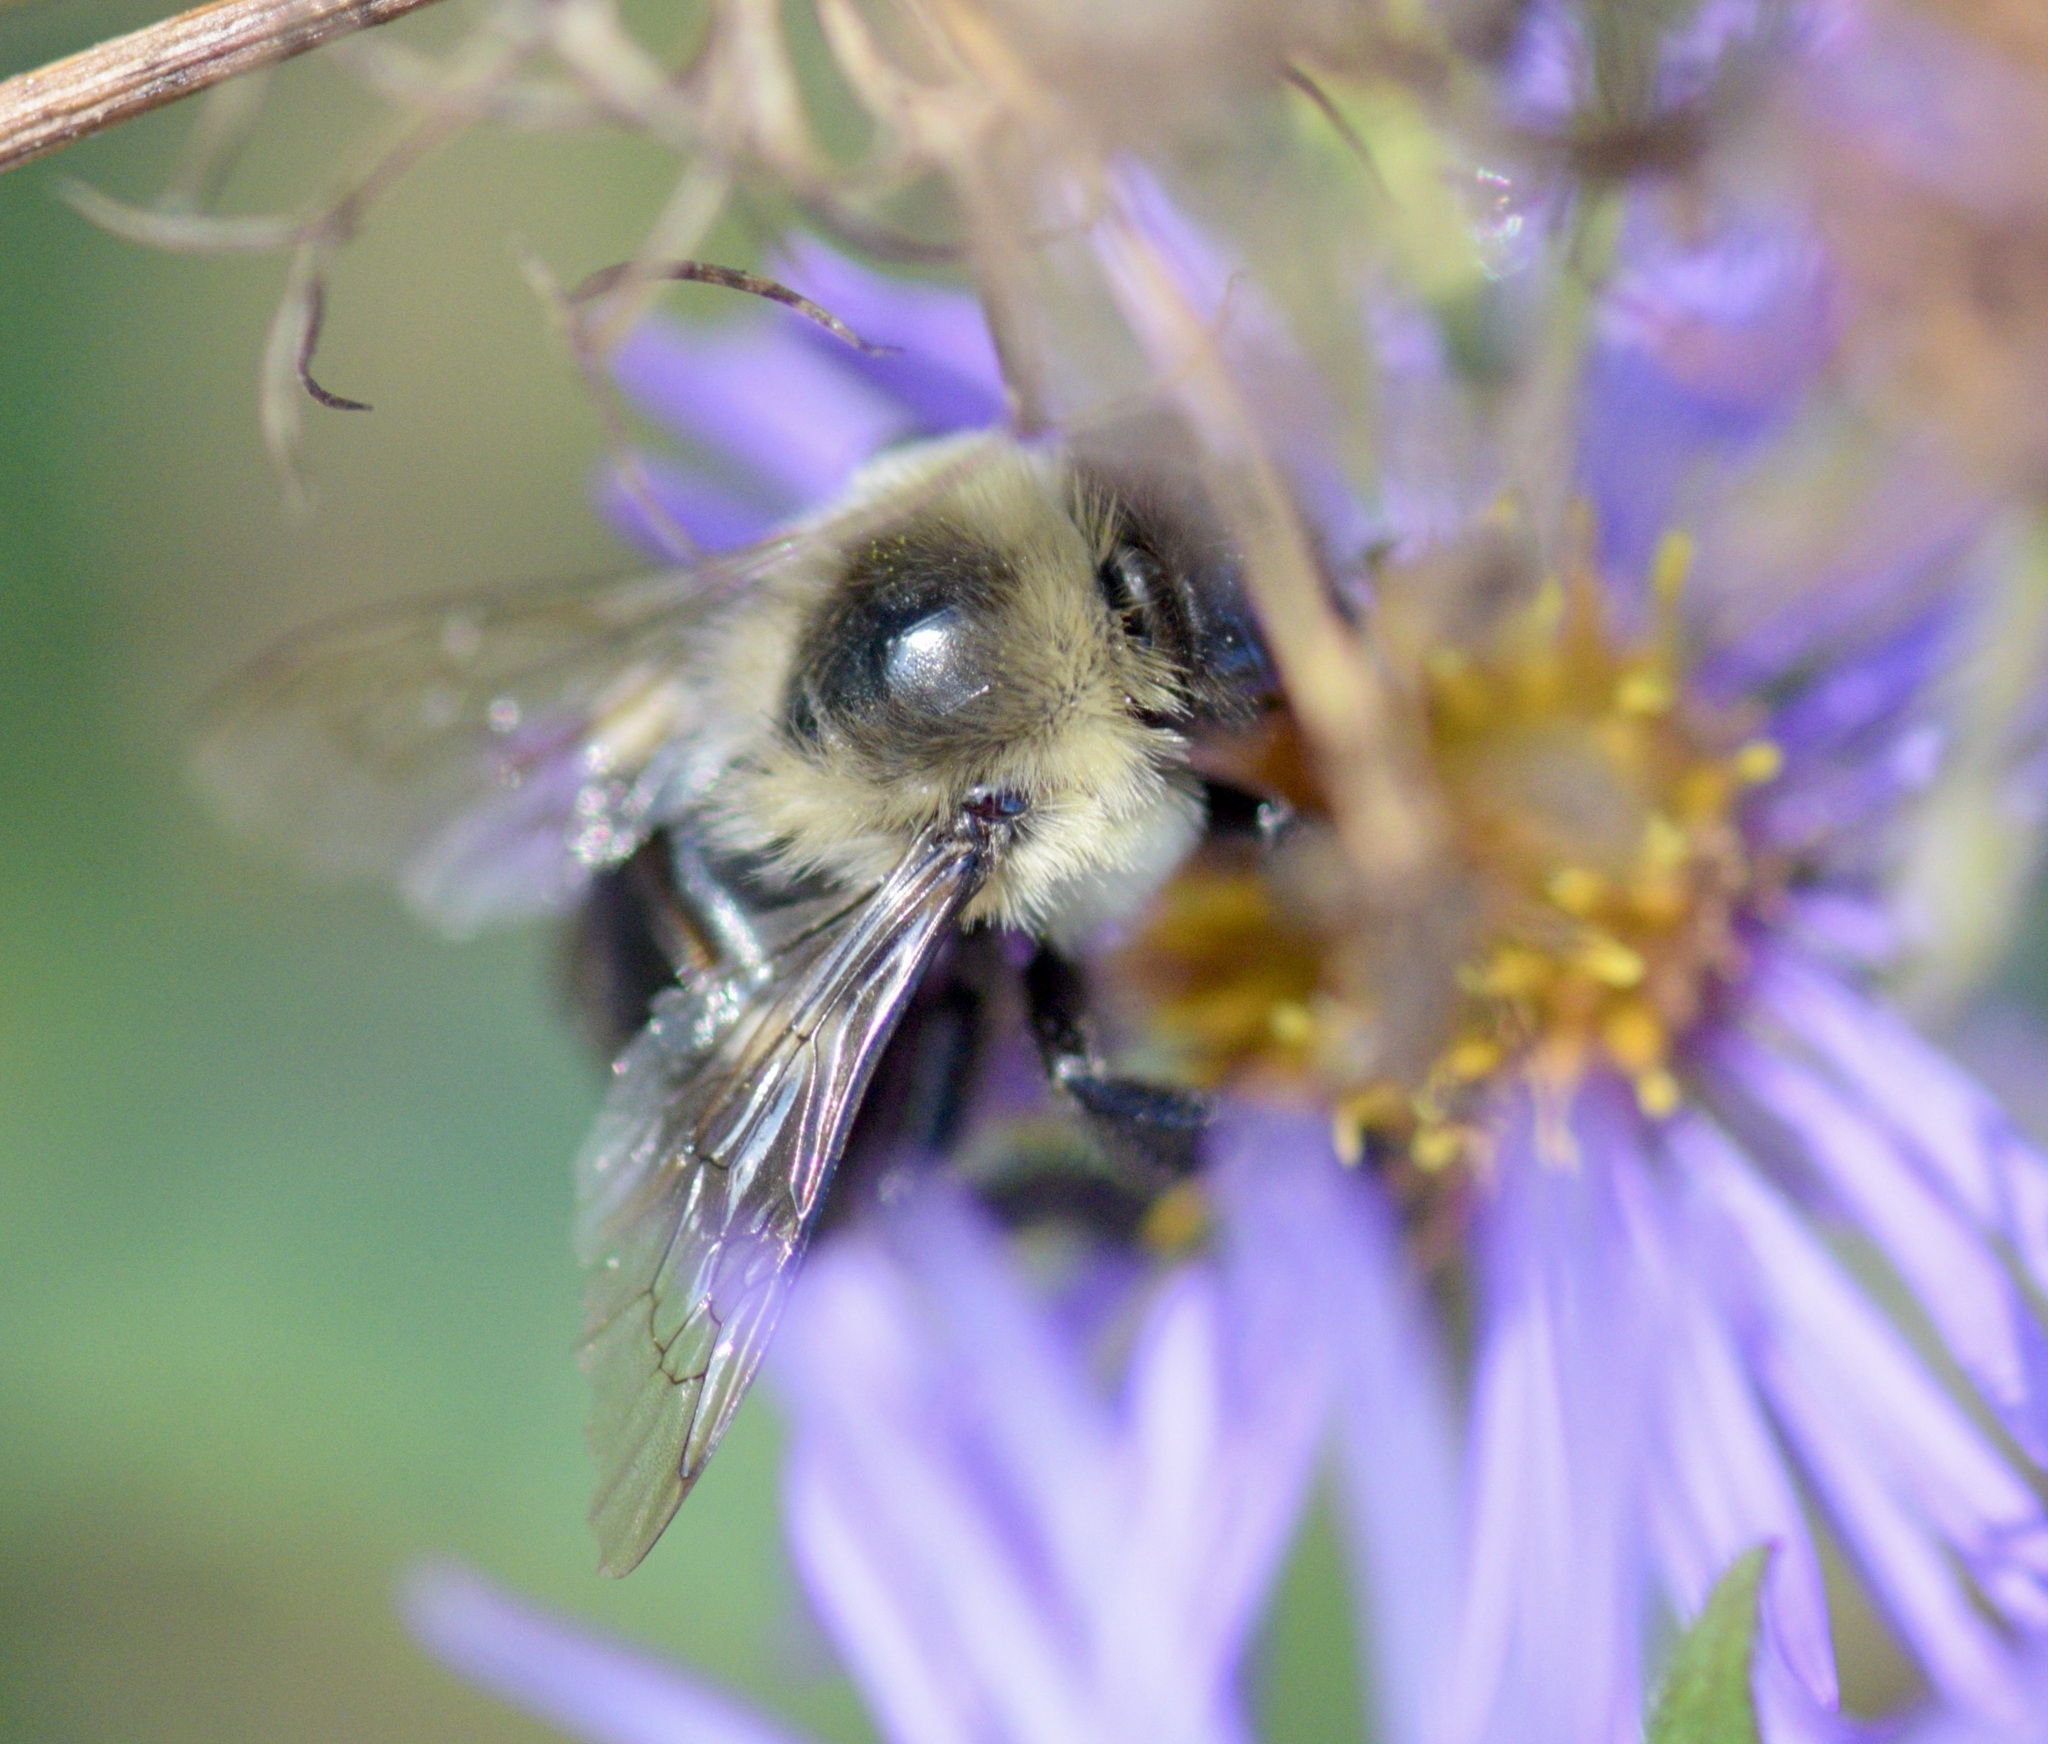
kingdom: Animalia
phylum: Arthropoda
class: Insecta
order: Hymenoptera
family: Apidae
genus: Bombus
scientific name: Bombus impatiens
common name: Common eastern bumble bee
